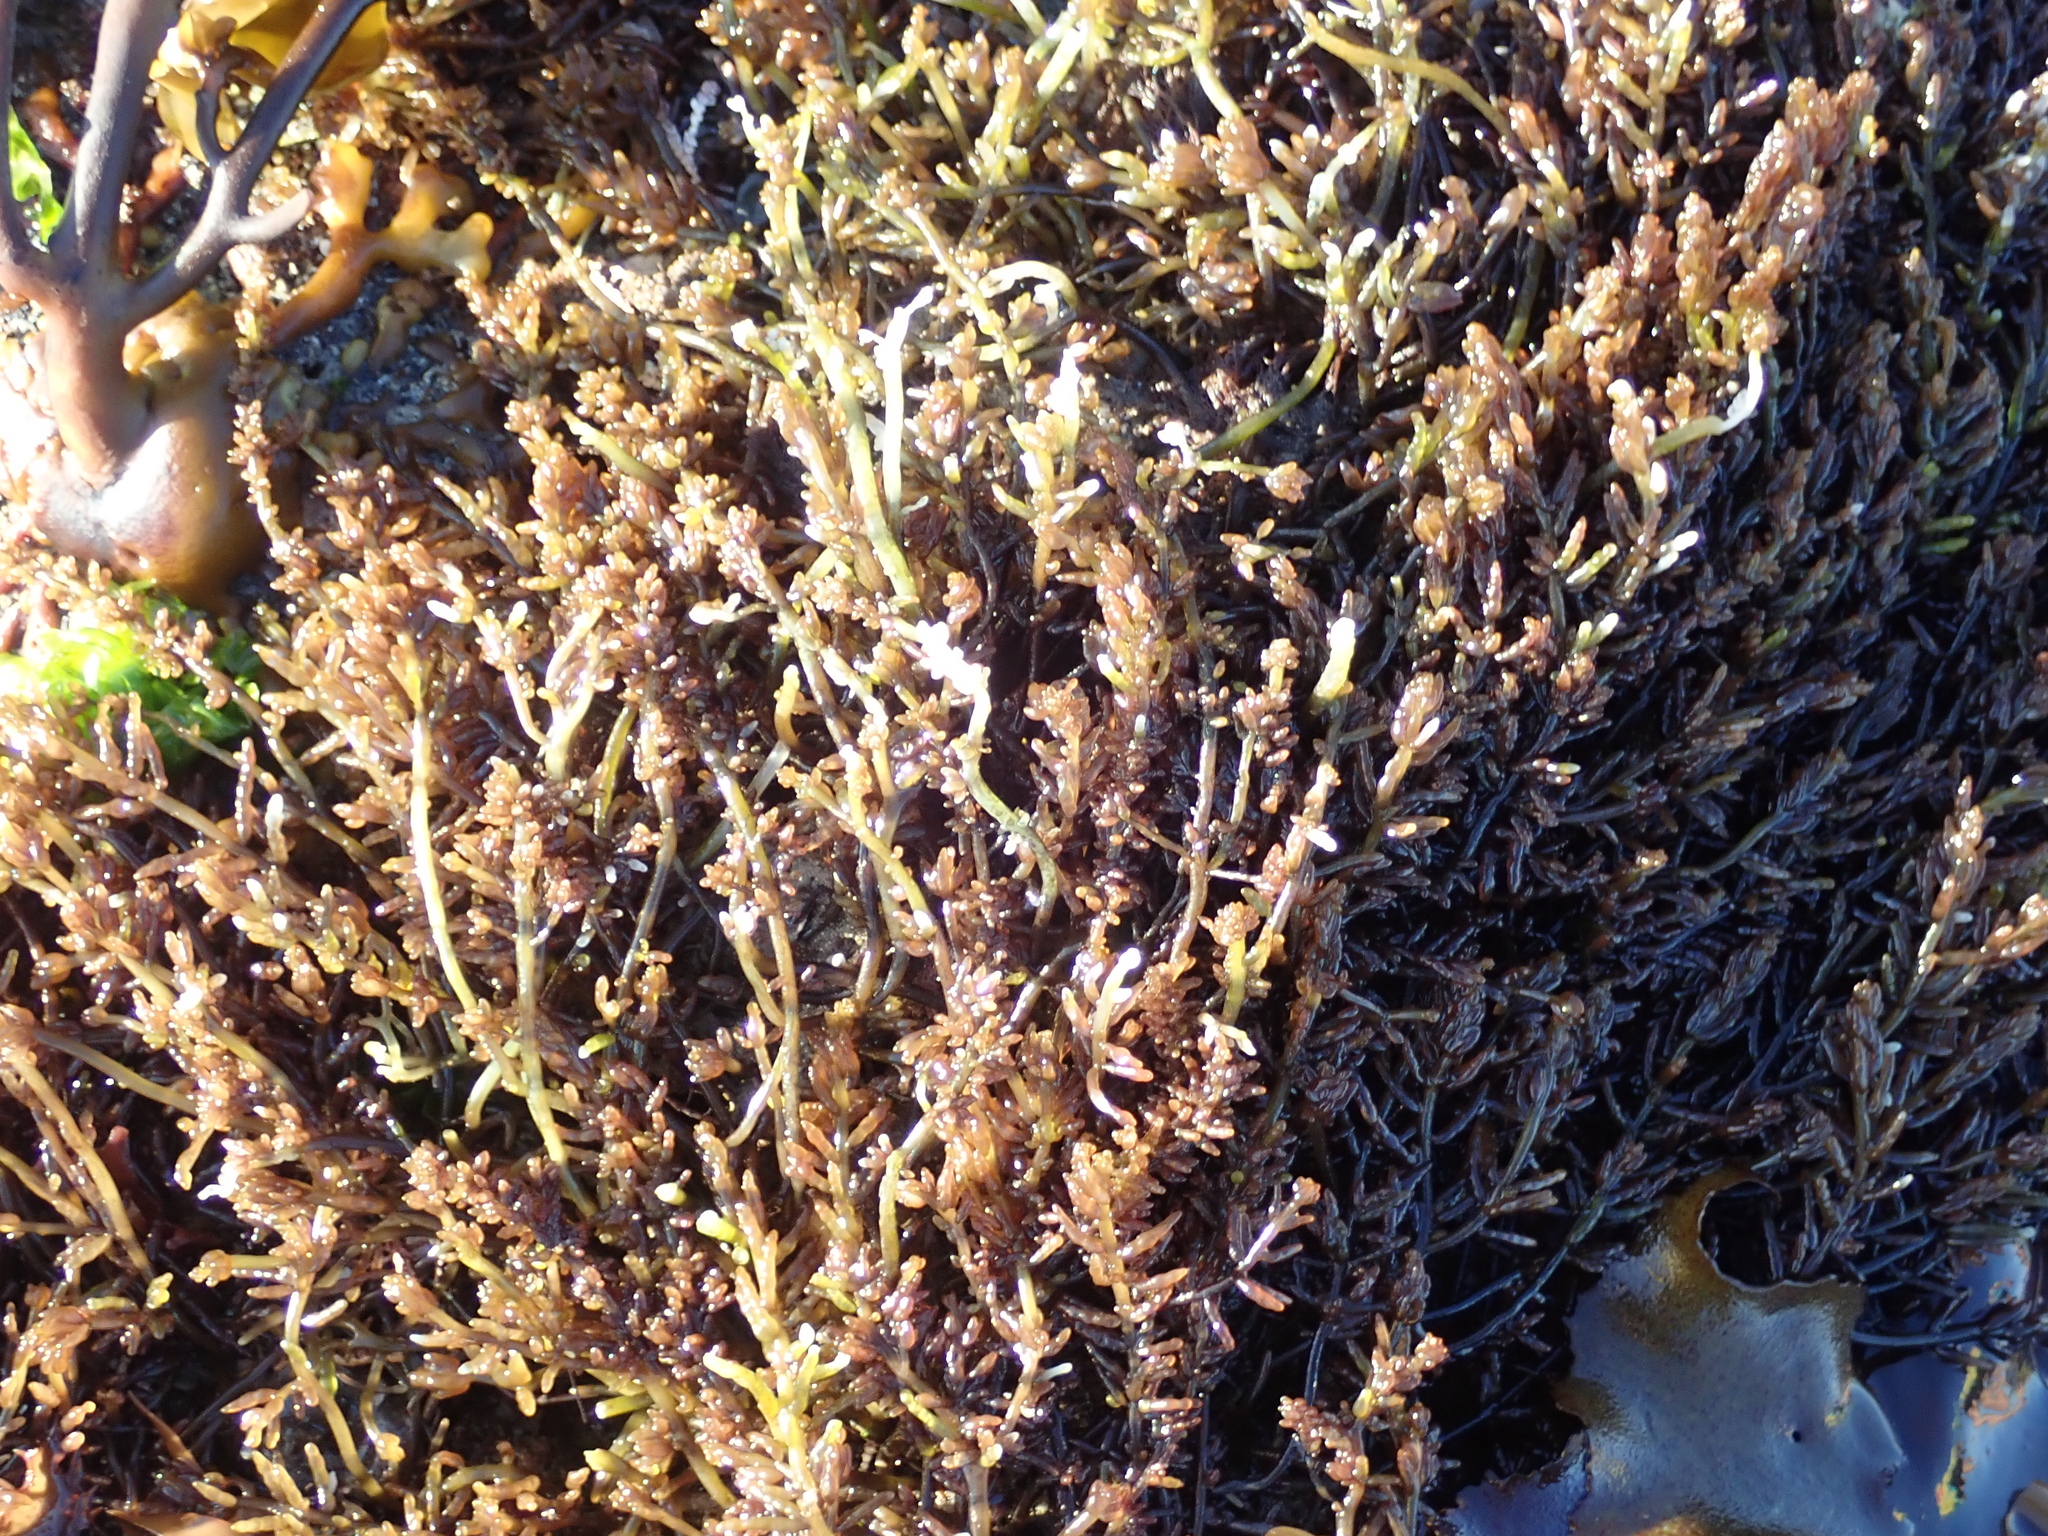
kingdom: Plantae
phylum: Rhodophyta
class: Florideophyceae
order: Rhodymeniales
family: Champiaceae
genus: Neogastroclonium
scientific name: Neogastroclonium subarticulatum
